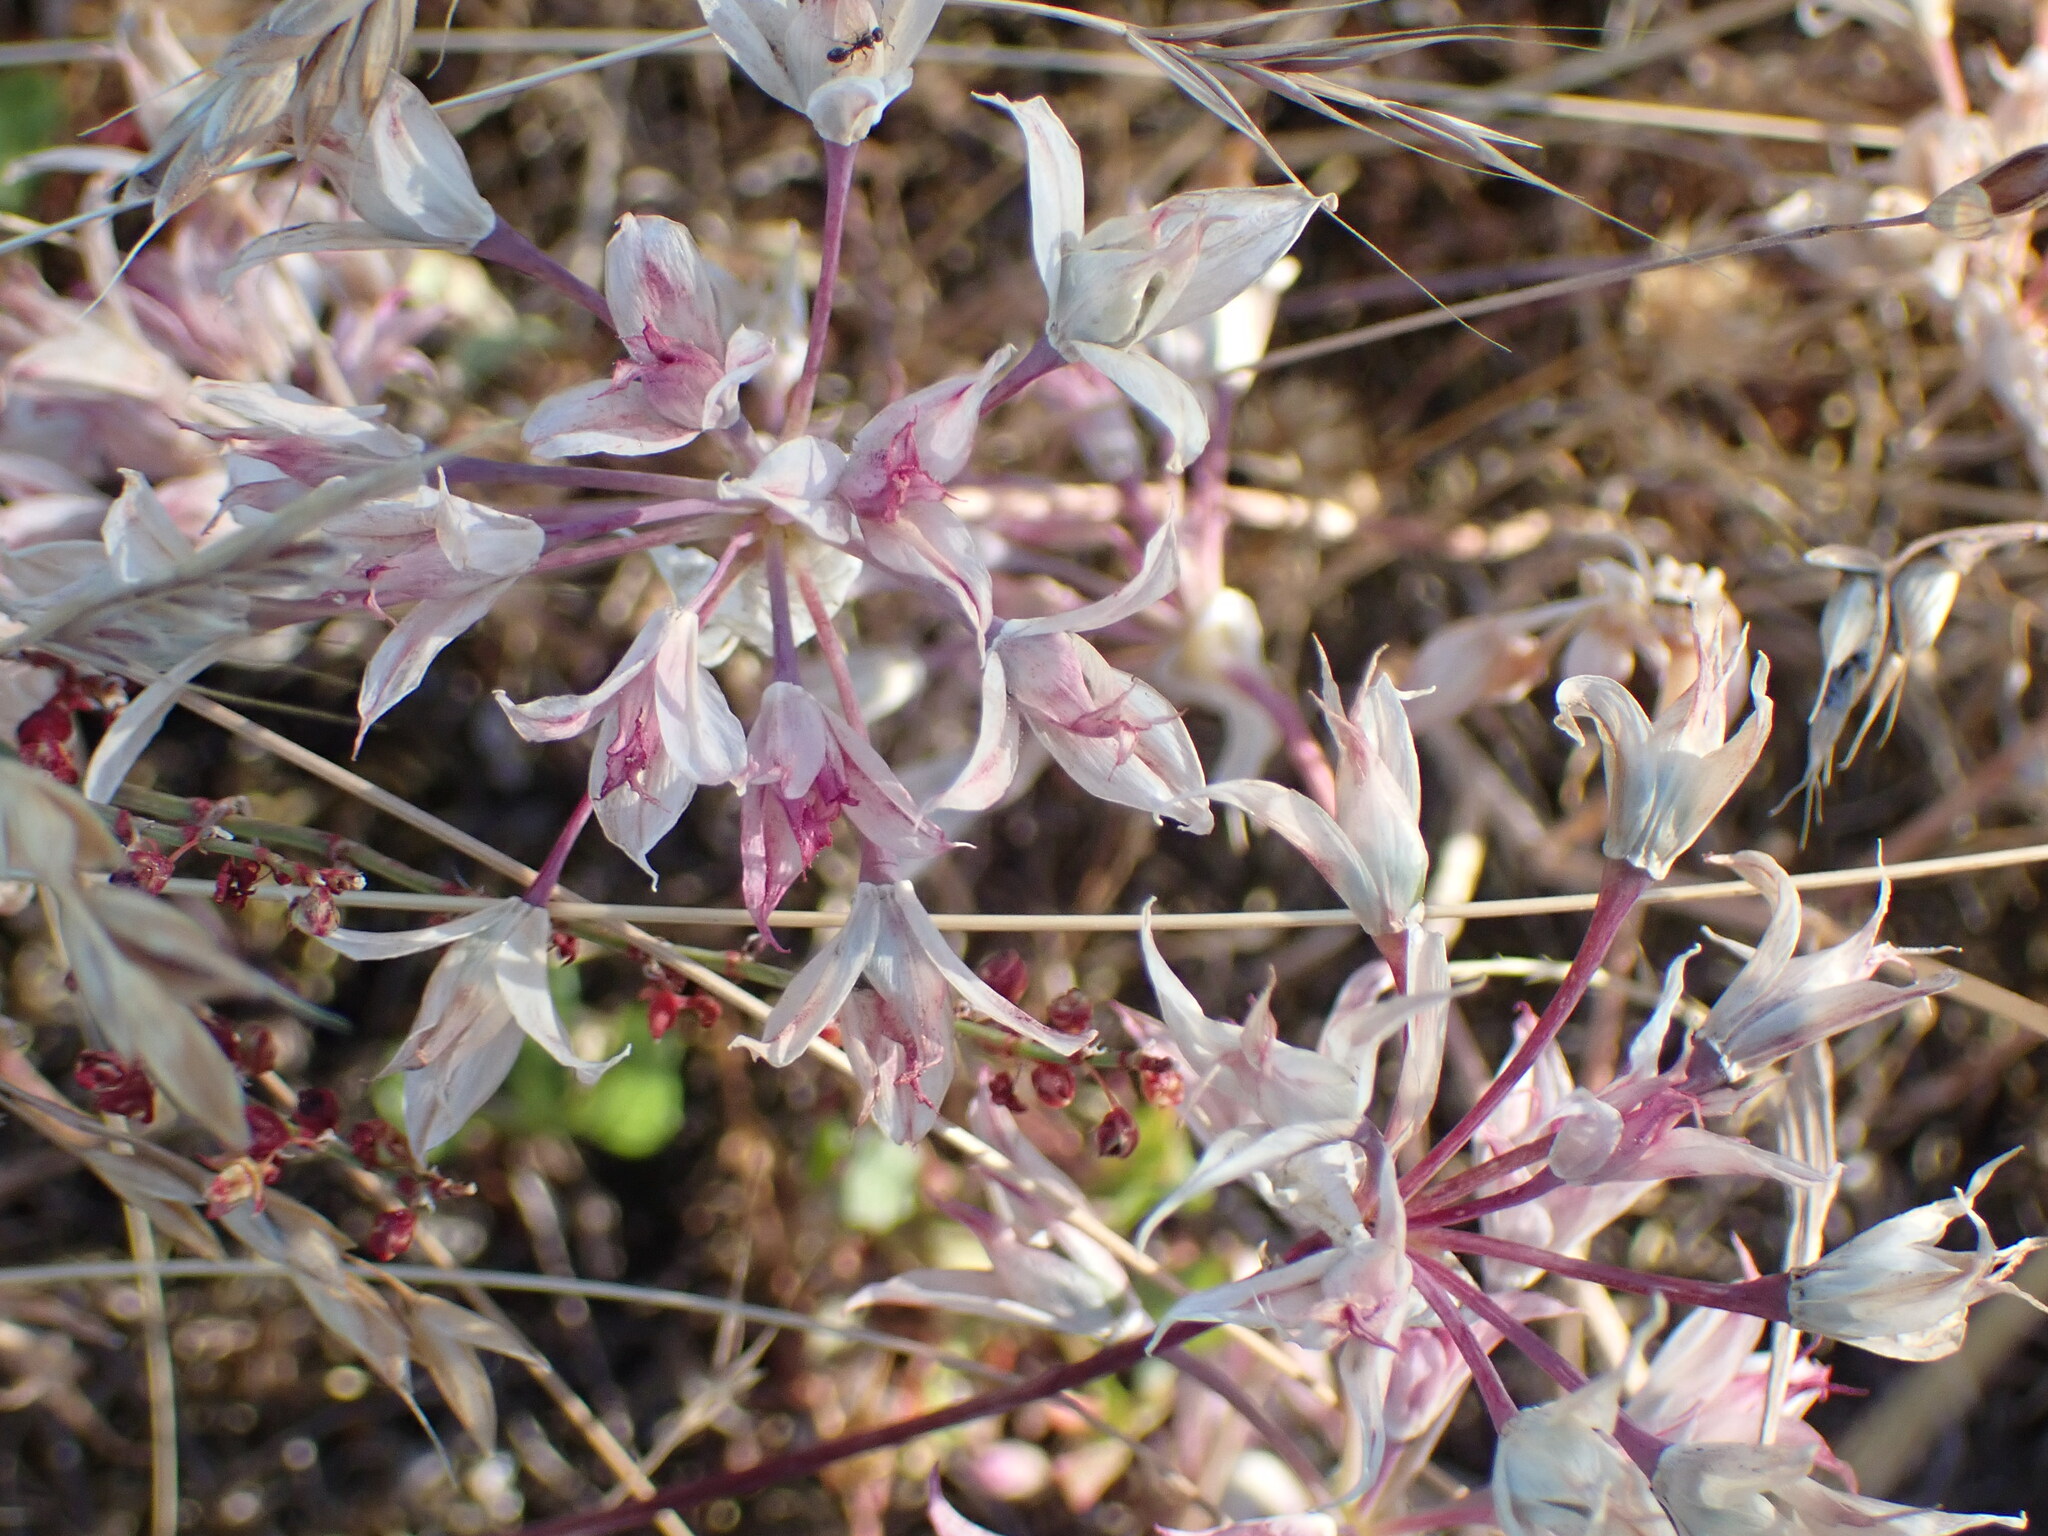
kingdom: Plantae
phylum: Tracheophyta
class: Liliopsida
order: Asparagales
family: Amaryllidaceae
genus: Allium
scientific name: Allium acuminatum
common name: Hooker's onion
